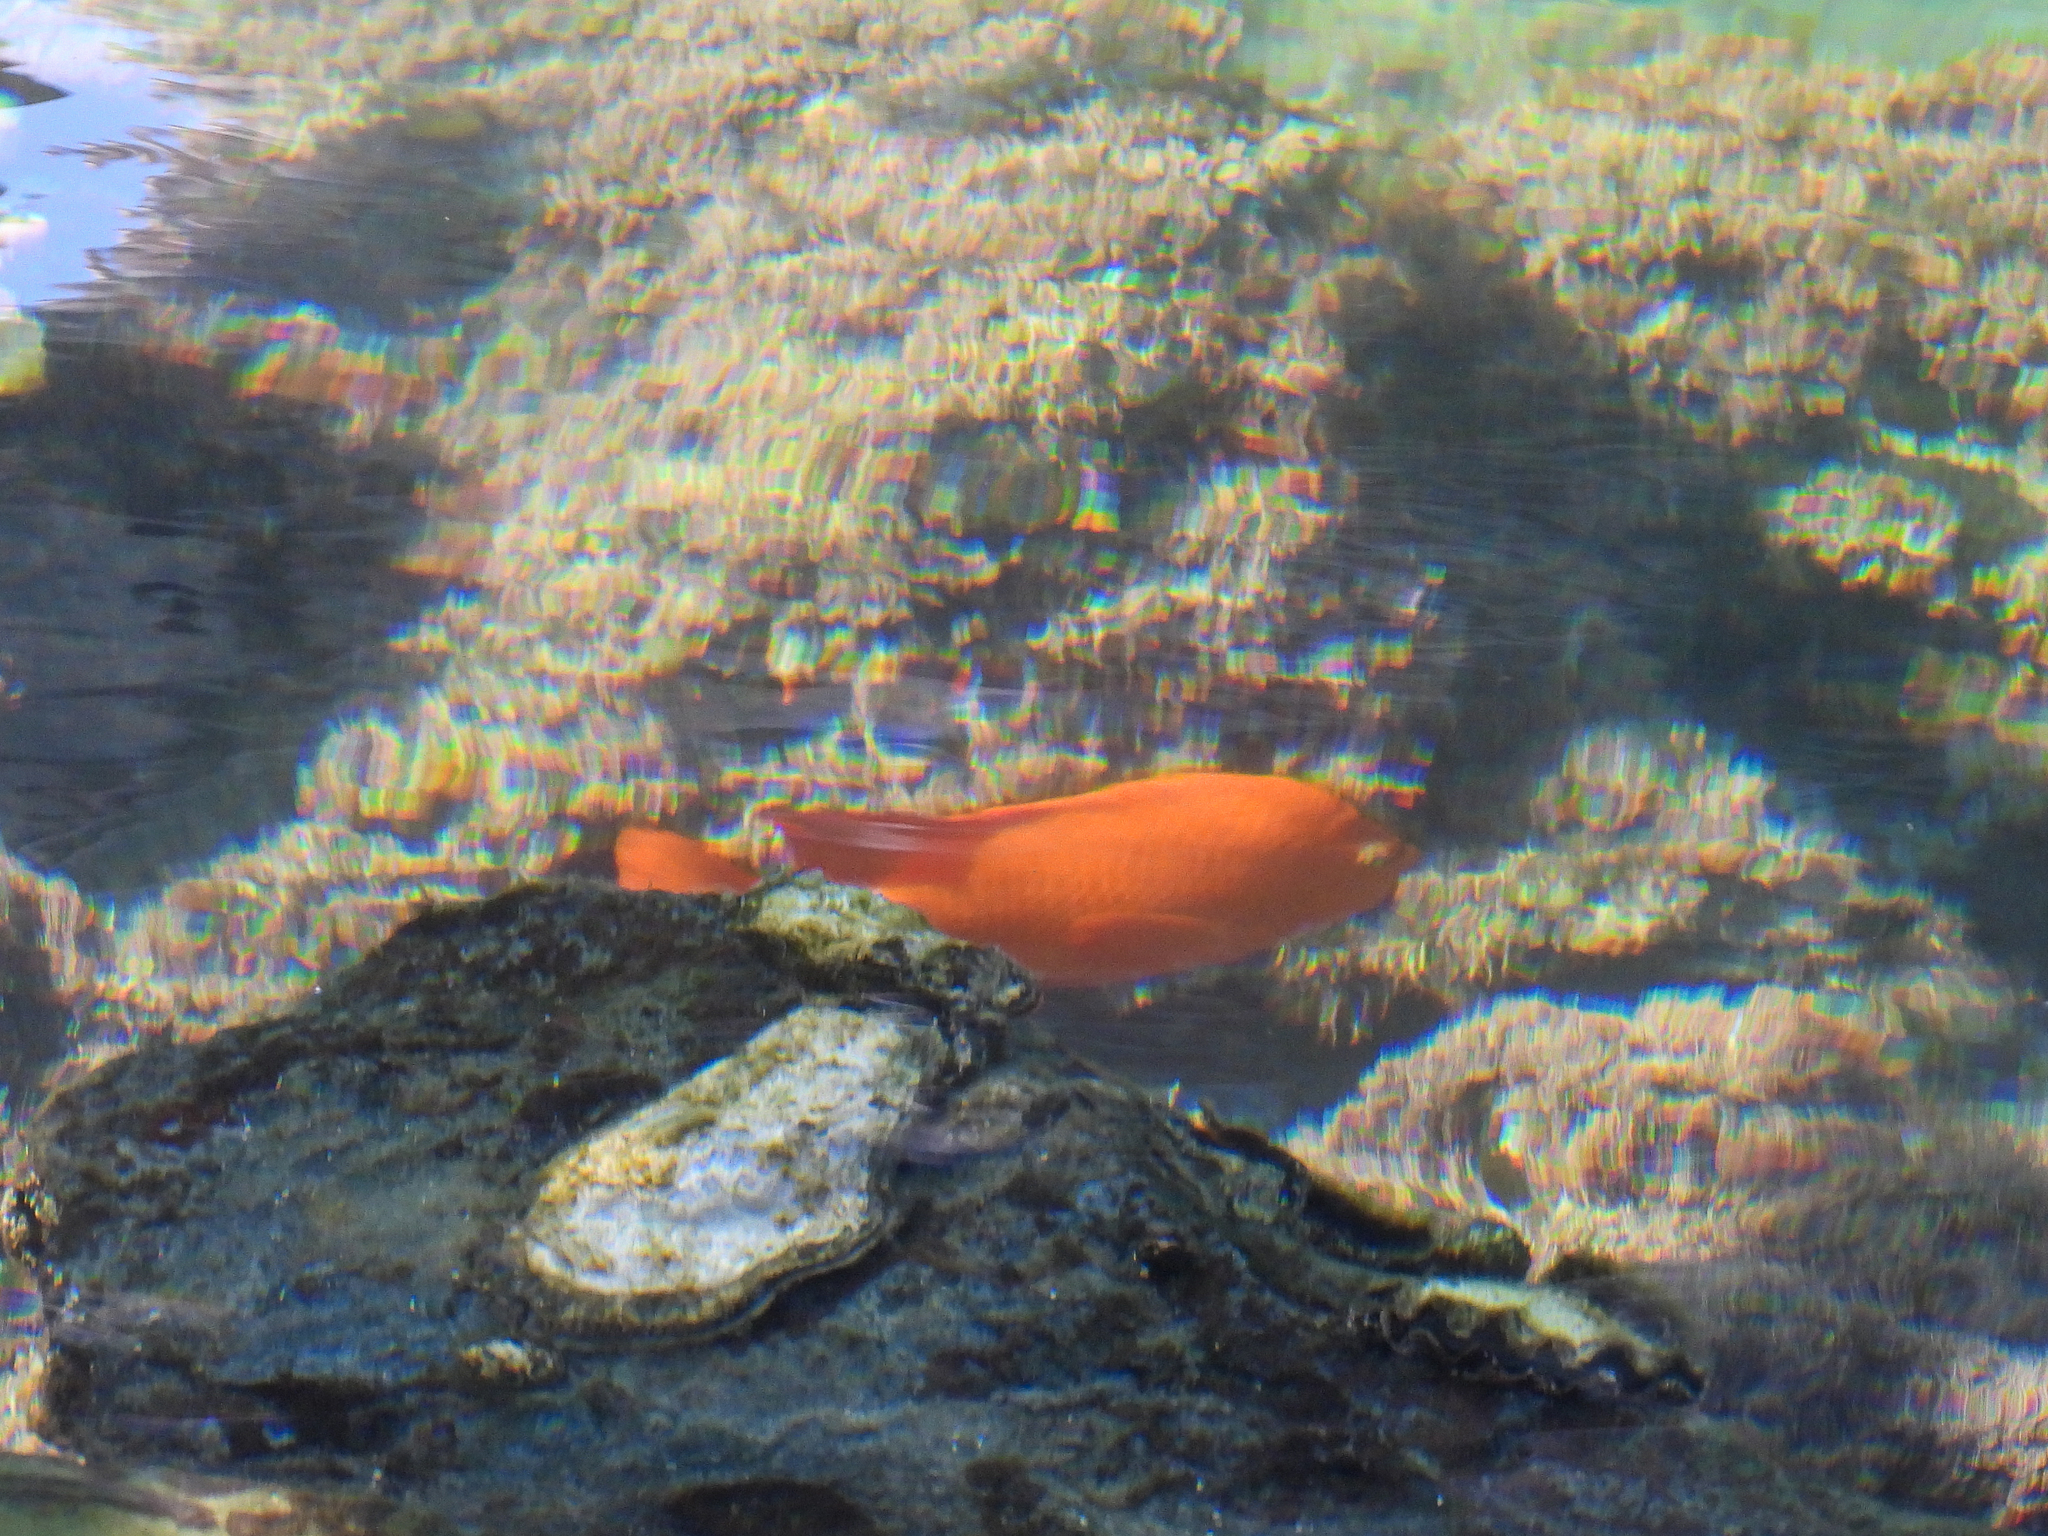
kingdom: Animalia
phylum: Chordata
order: Perciformes
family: Pomacentridae
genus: Hypsypops
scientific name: Hypsypops rubicundus
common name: Garibaldi
